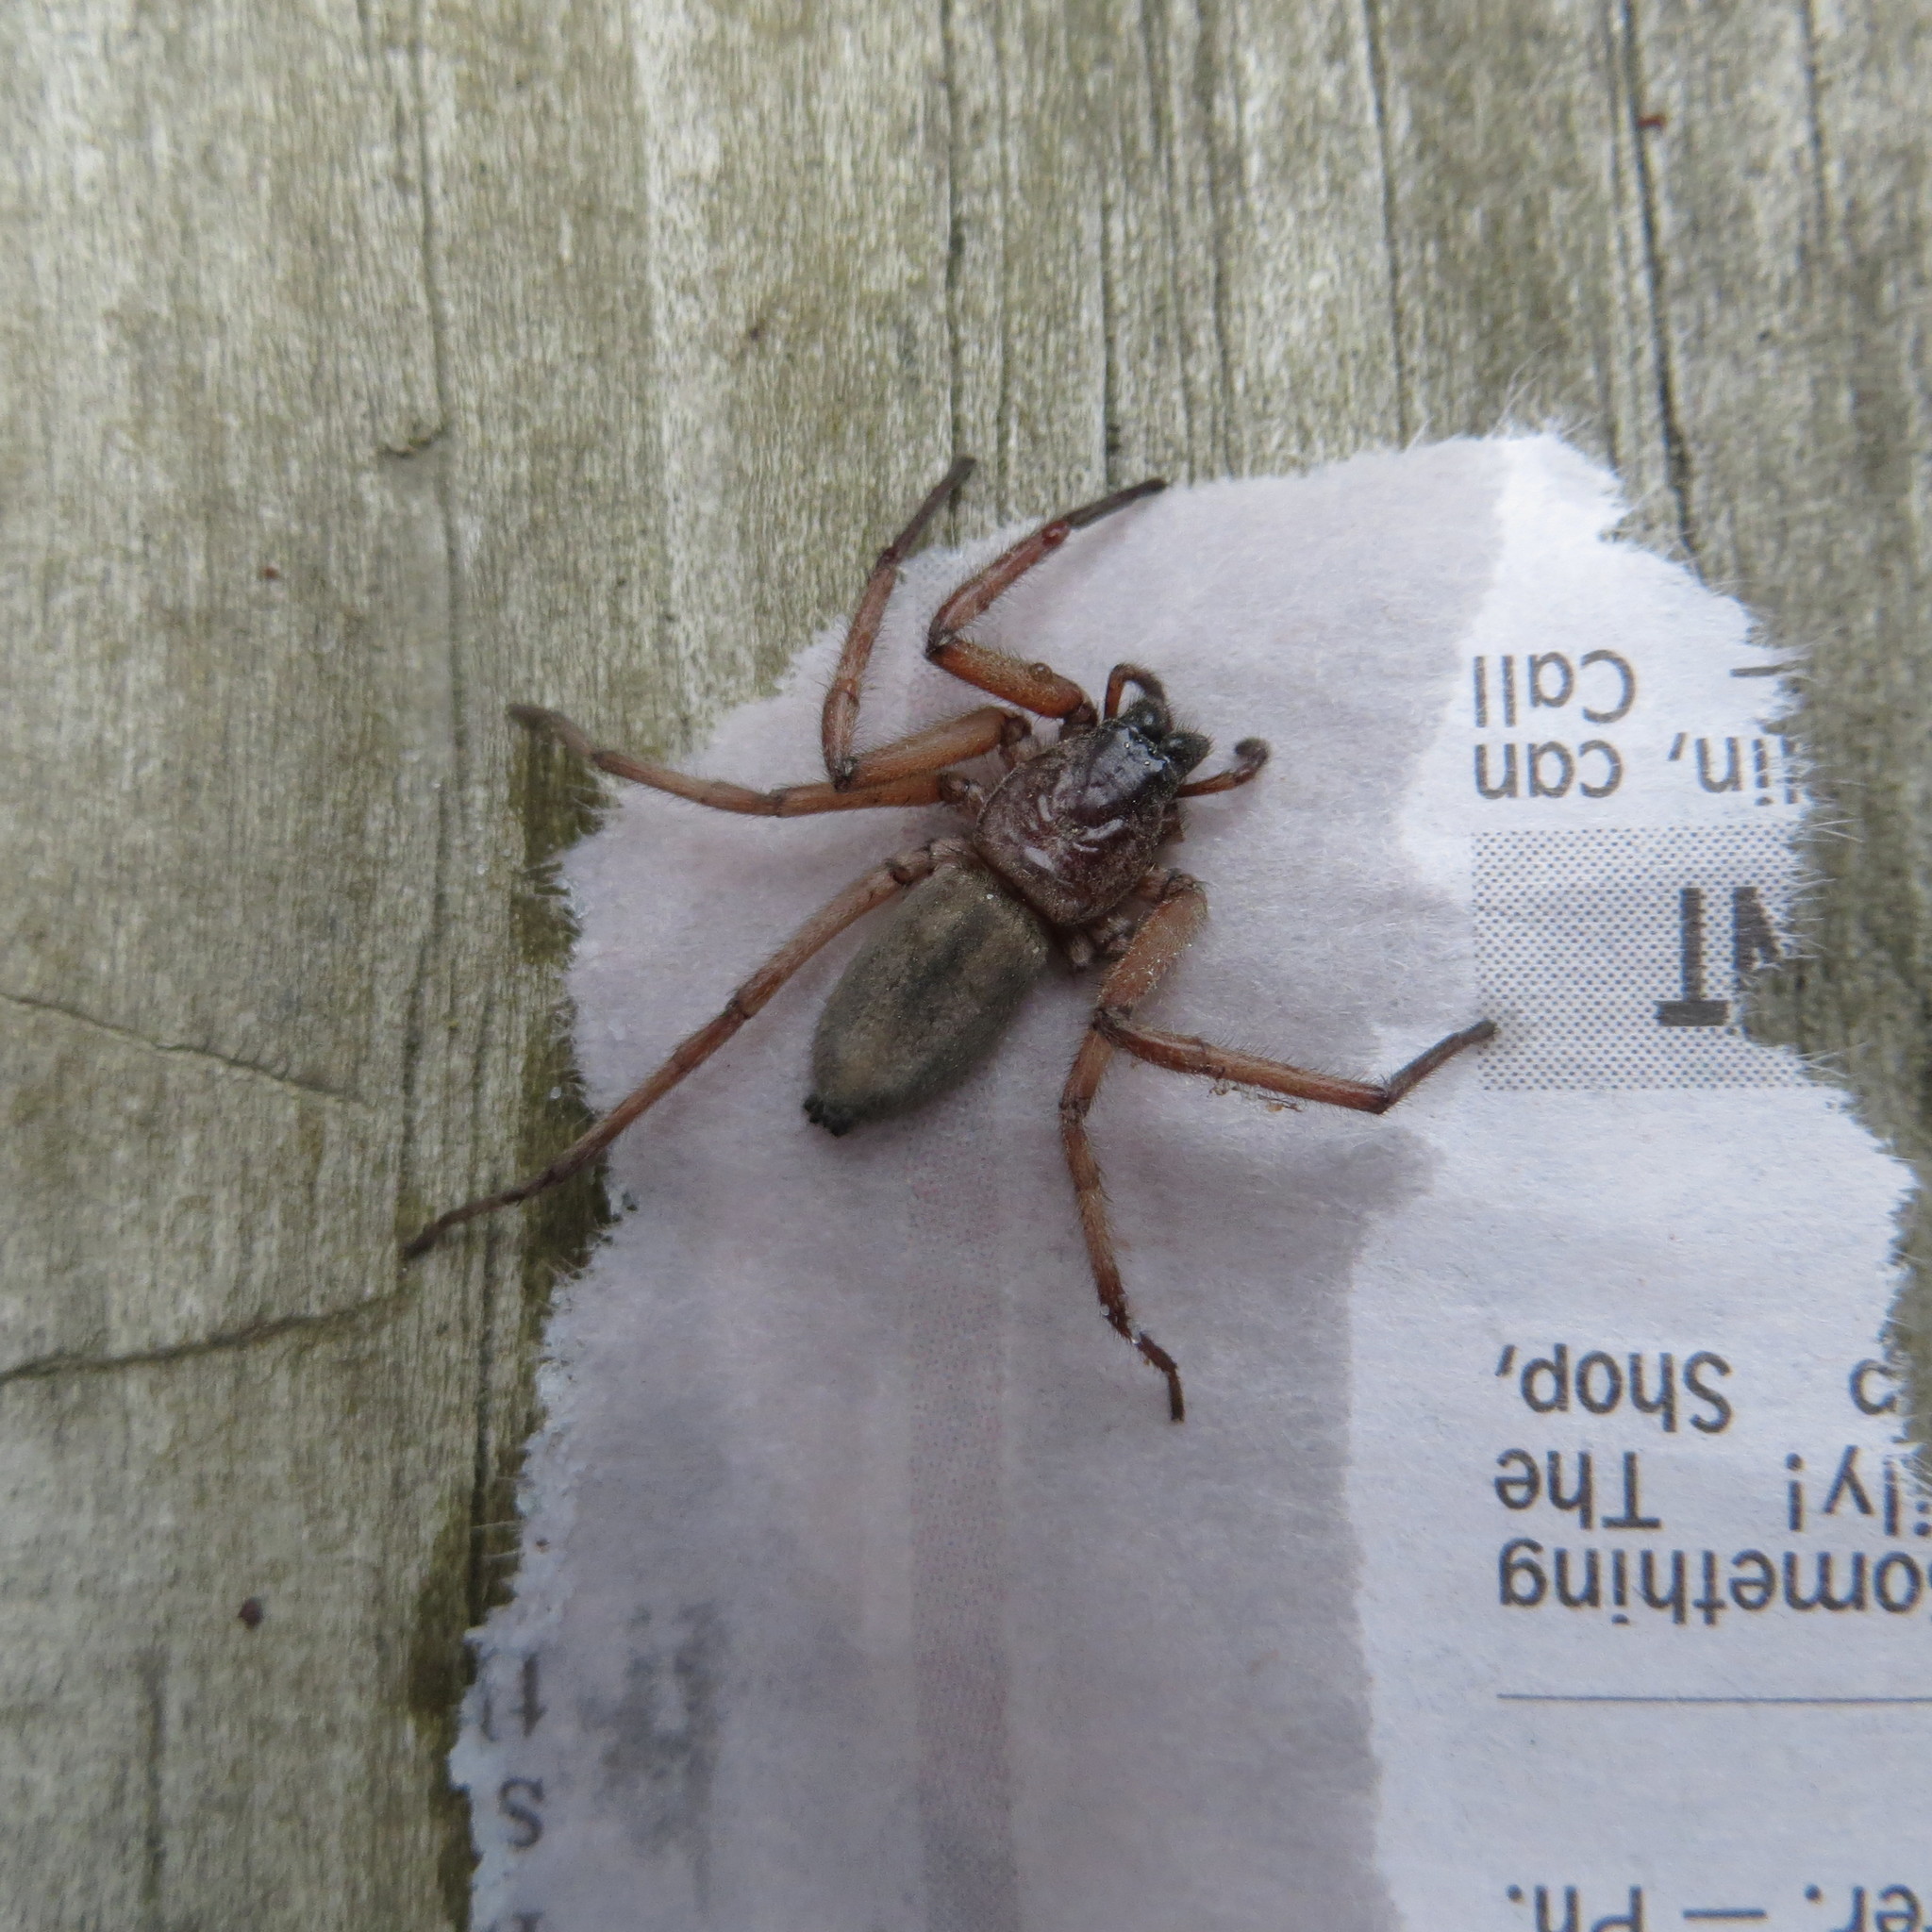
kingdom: Animalia
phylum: Arthropoda
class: Arachnida
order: Araneae
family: Trochanteriidae
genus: Hemicloea
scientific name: Hemicloea rogenhoferi
